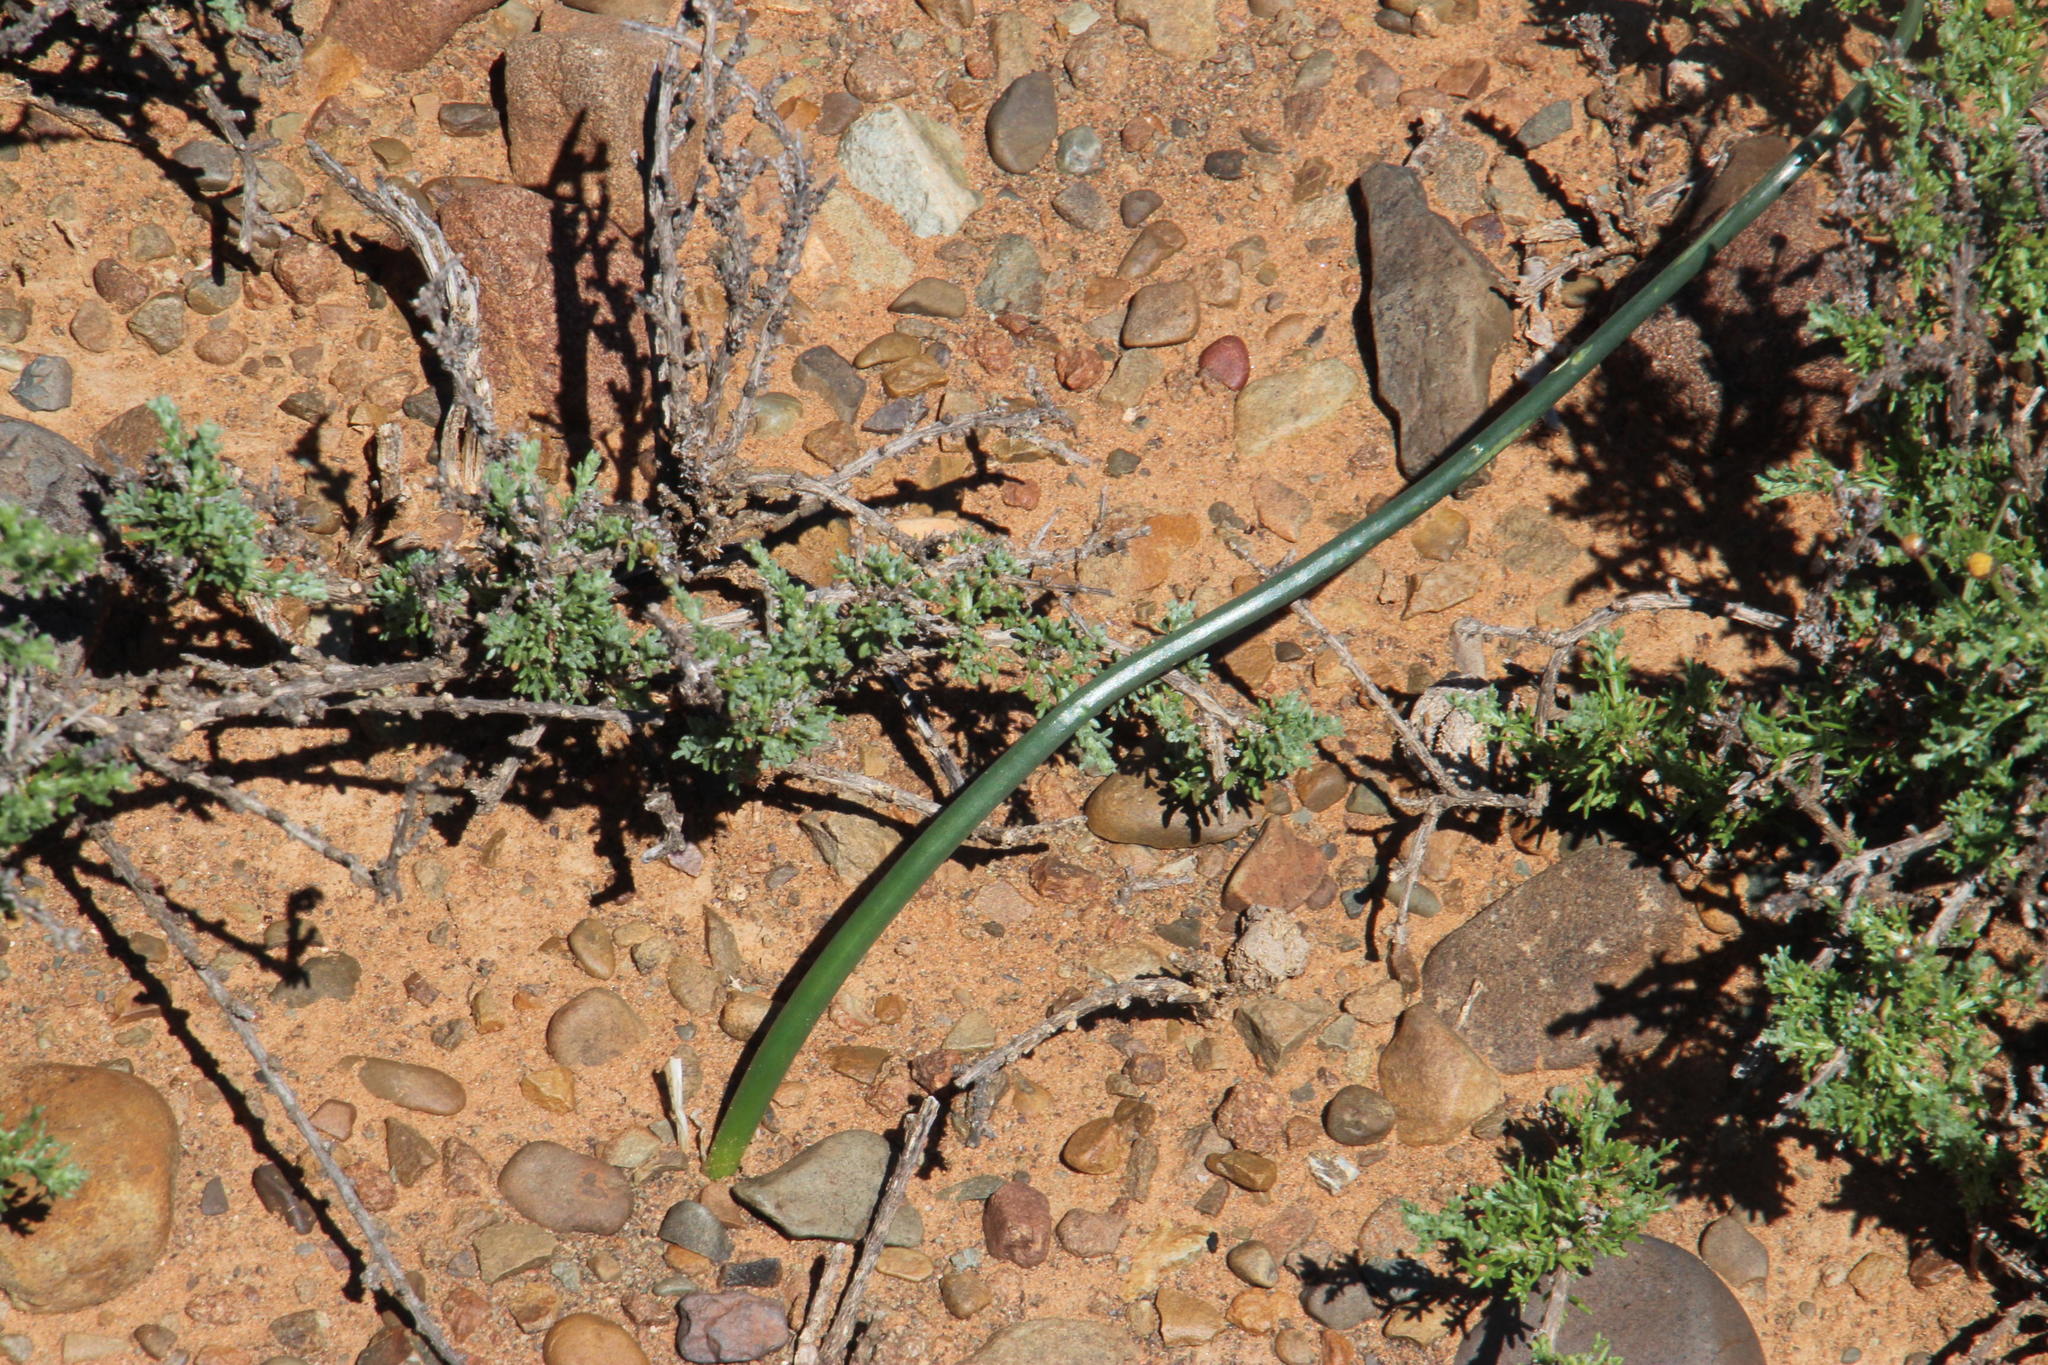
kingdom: Plantae
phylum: Tracheophyta
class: Liliopsida
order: Asparagales
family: Asparagaceae
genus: Drimia
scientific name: Drimia anomala
